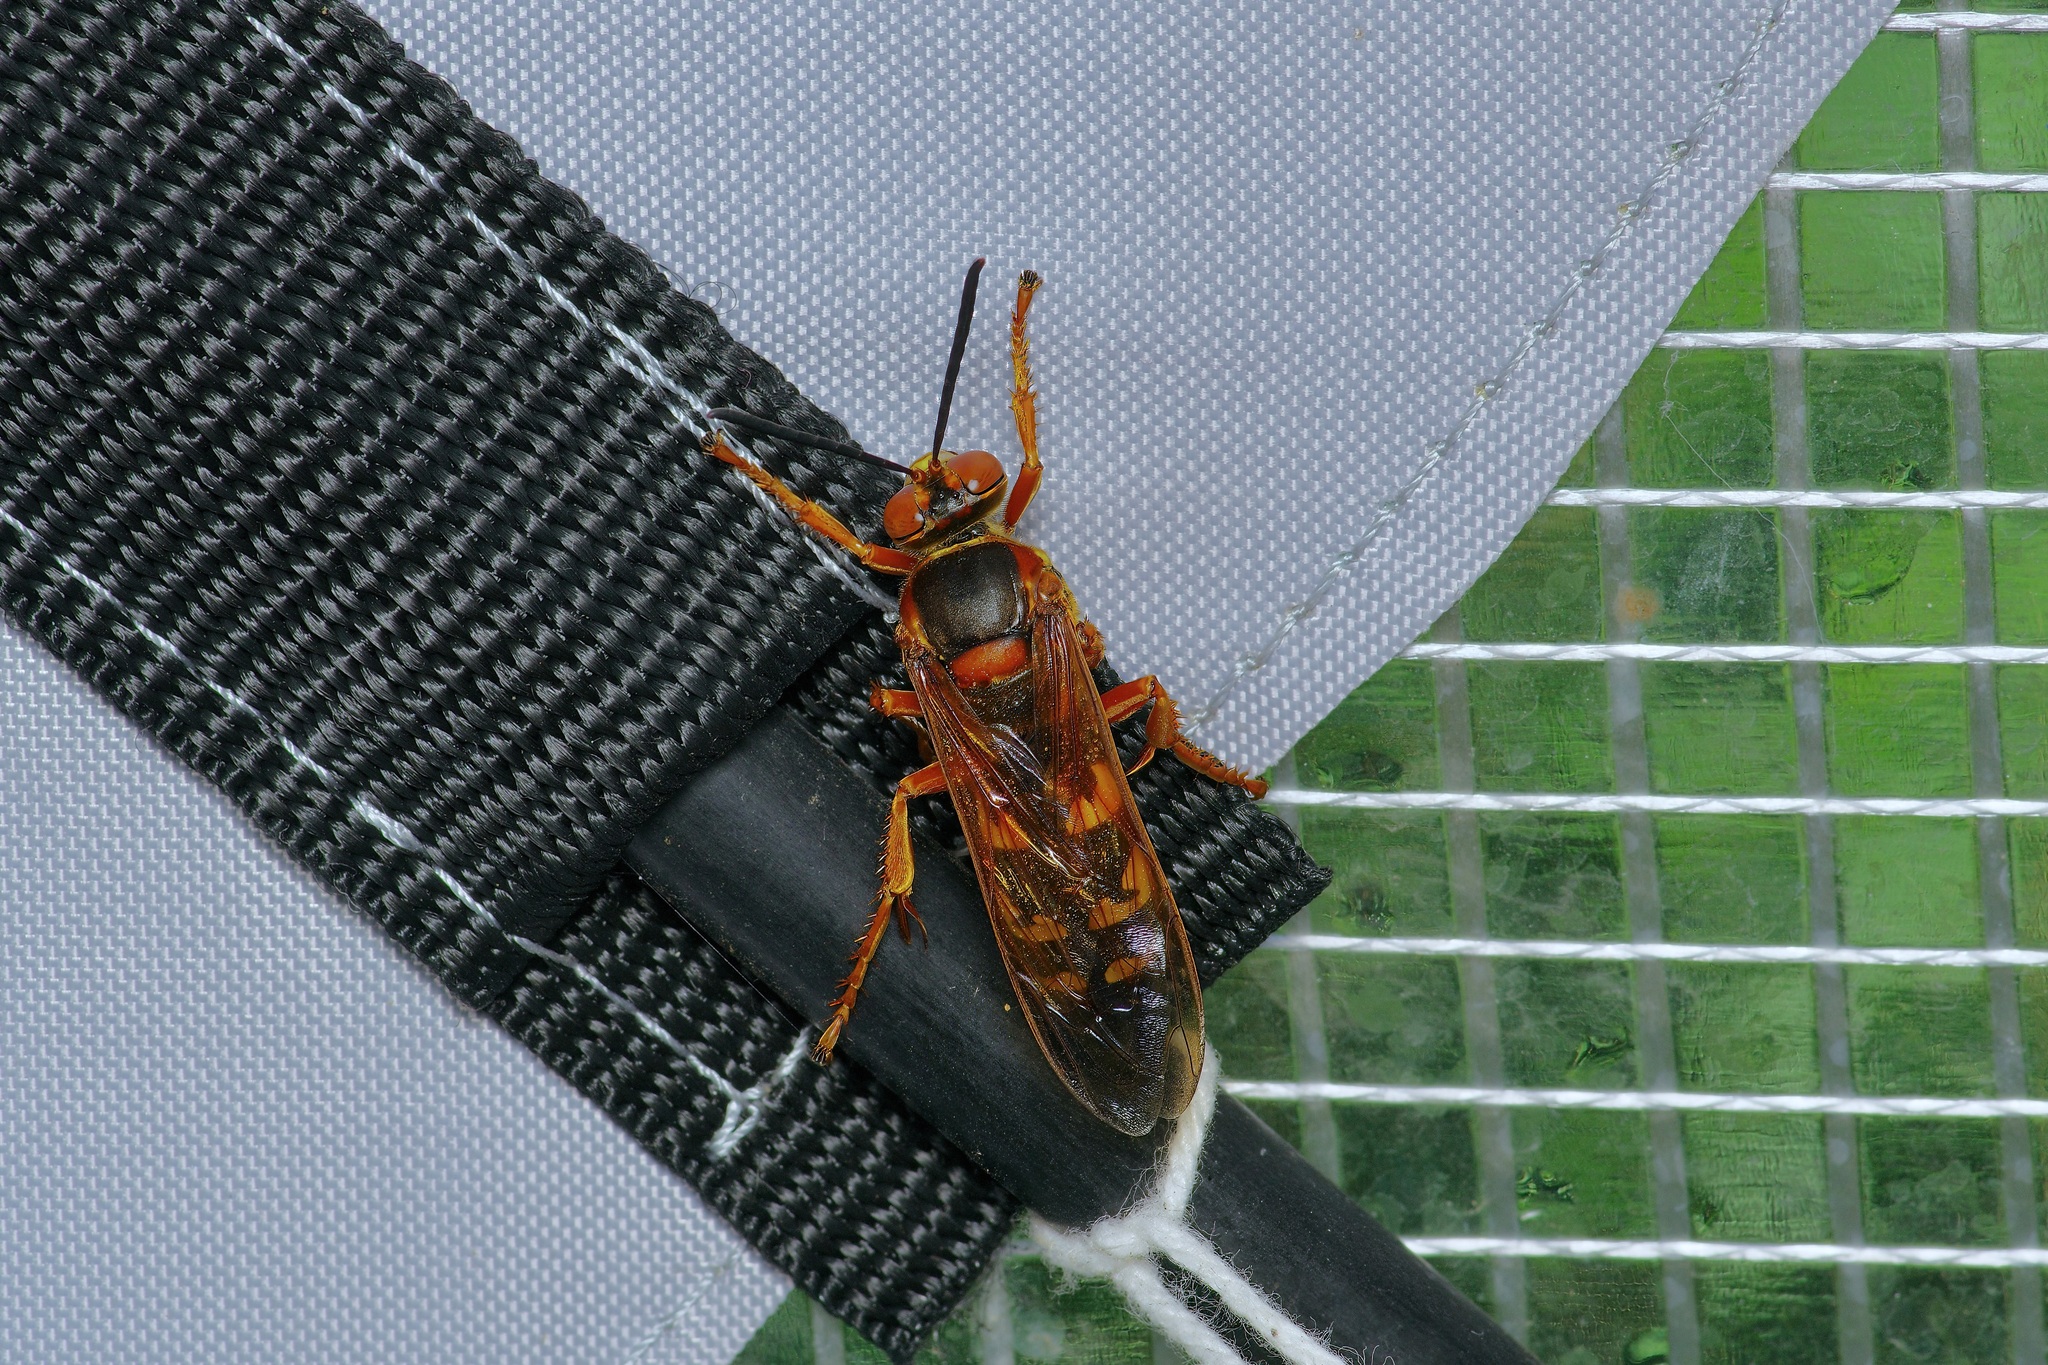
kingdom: Animalia
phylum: Arthropoda
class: Insecta
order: Hymenoptera
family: Crabronidae
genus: Sphecius
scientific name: Sphecius speciosus
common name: Cicada killer
